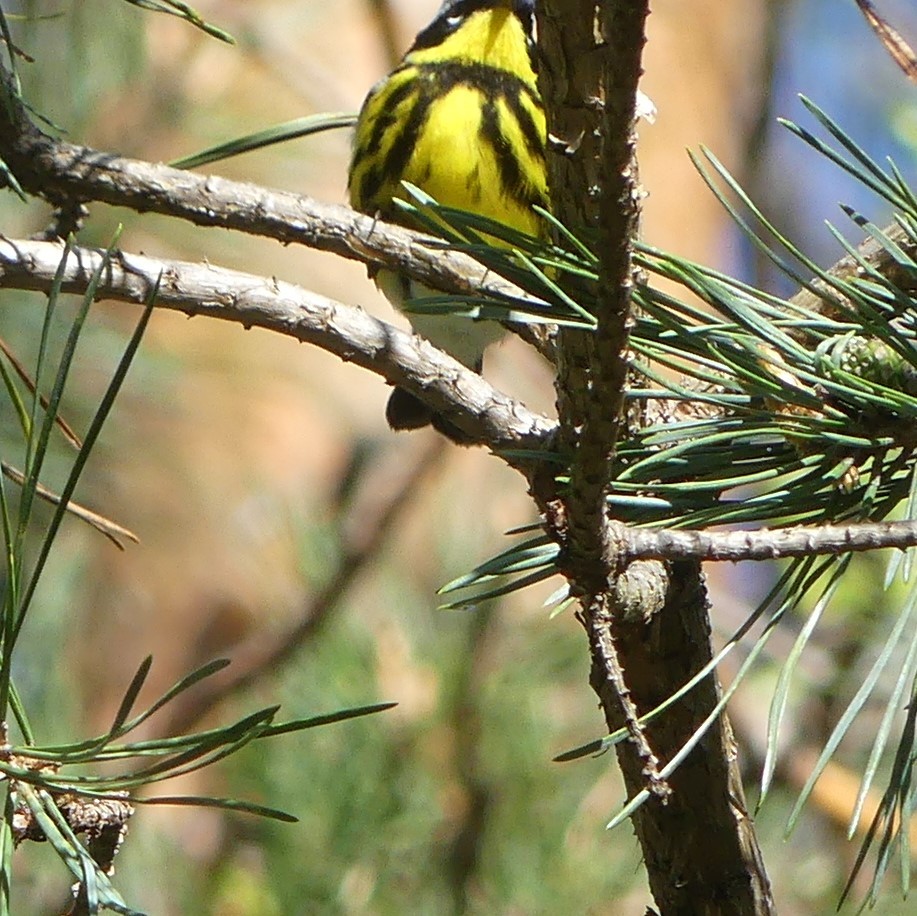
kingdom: Animalia
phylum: Chordata
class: Aves
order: Passeriformes
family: Parulidae
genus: Setophaga
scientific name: Setophaga magnolia
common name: Magnolia warbler
